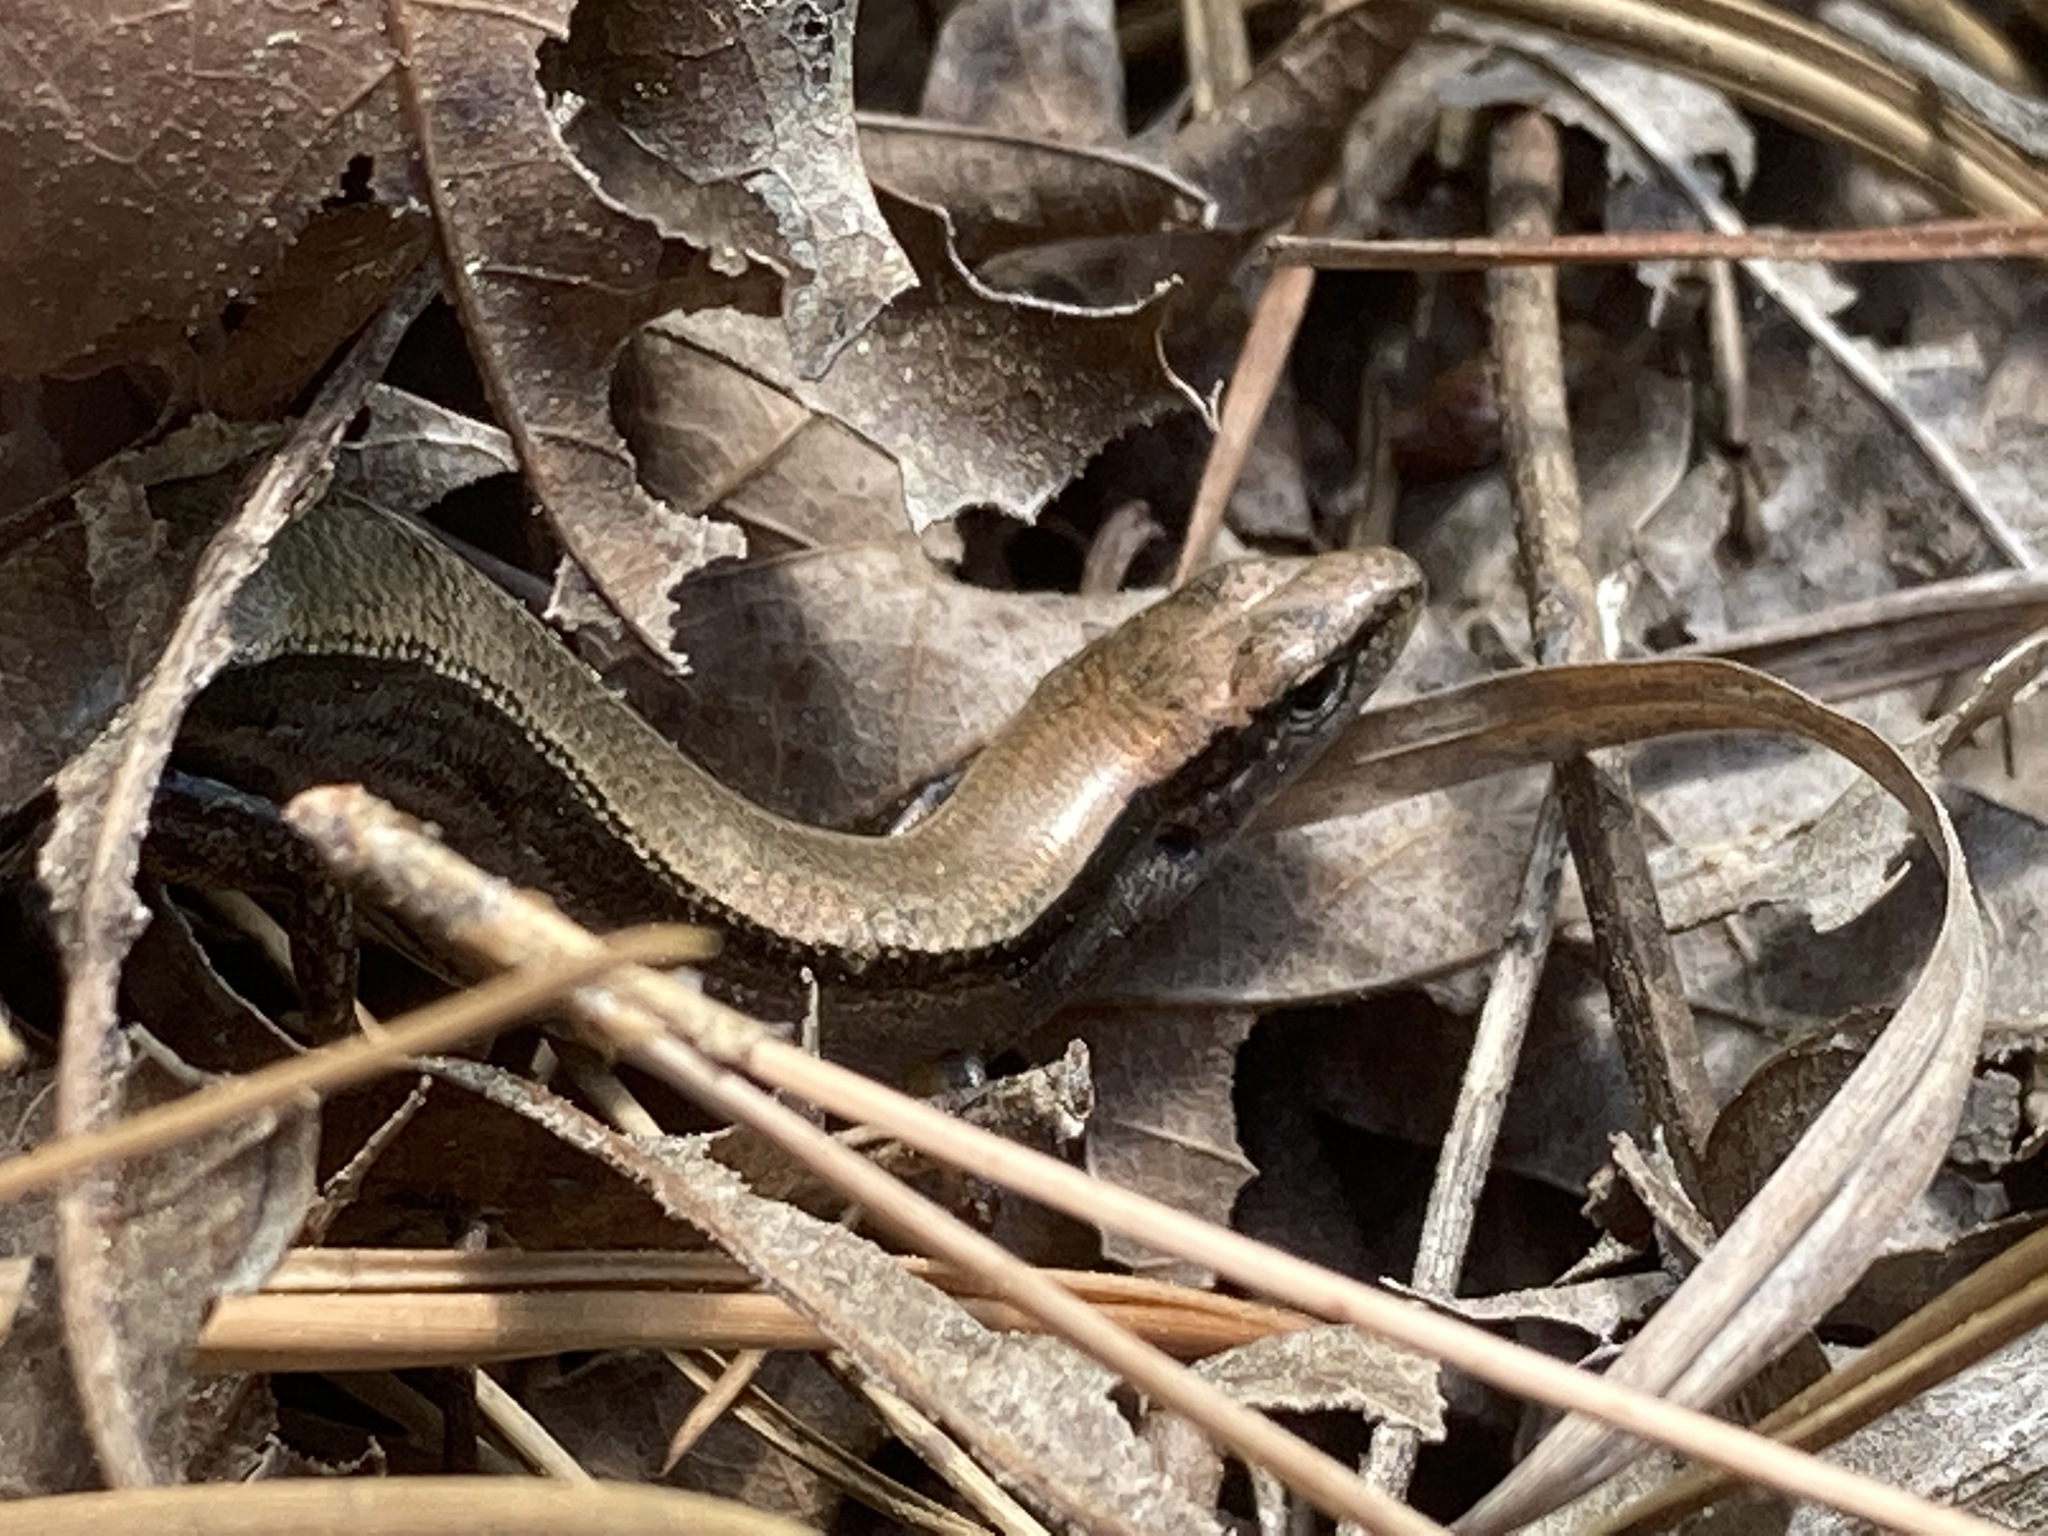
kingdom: Animalia
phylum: Chordata
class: Squamata
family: Scincidae
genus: Scincella
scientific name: Scincella lateralis
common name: Ground skink
